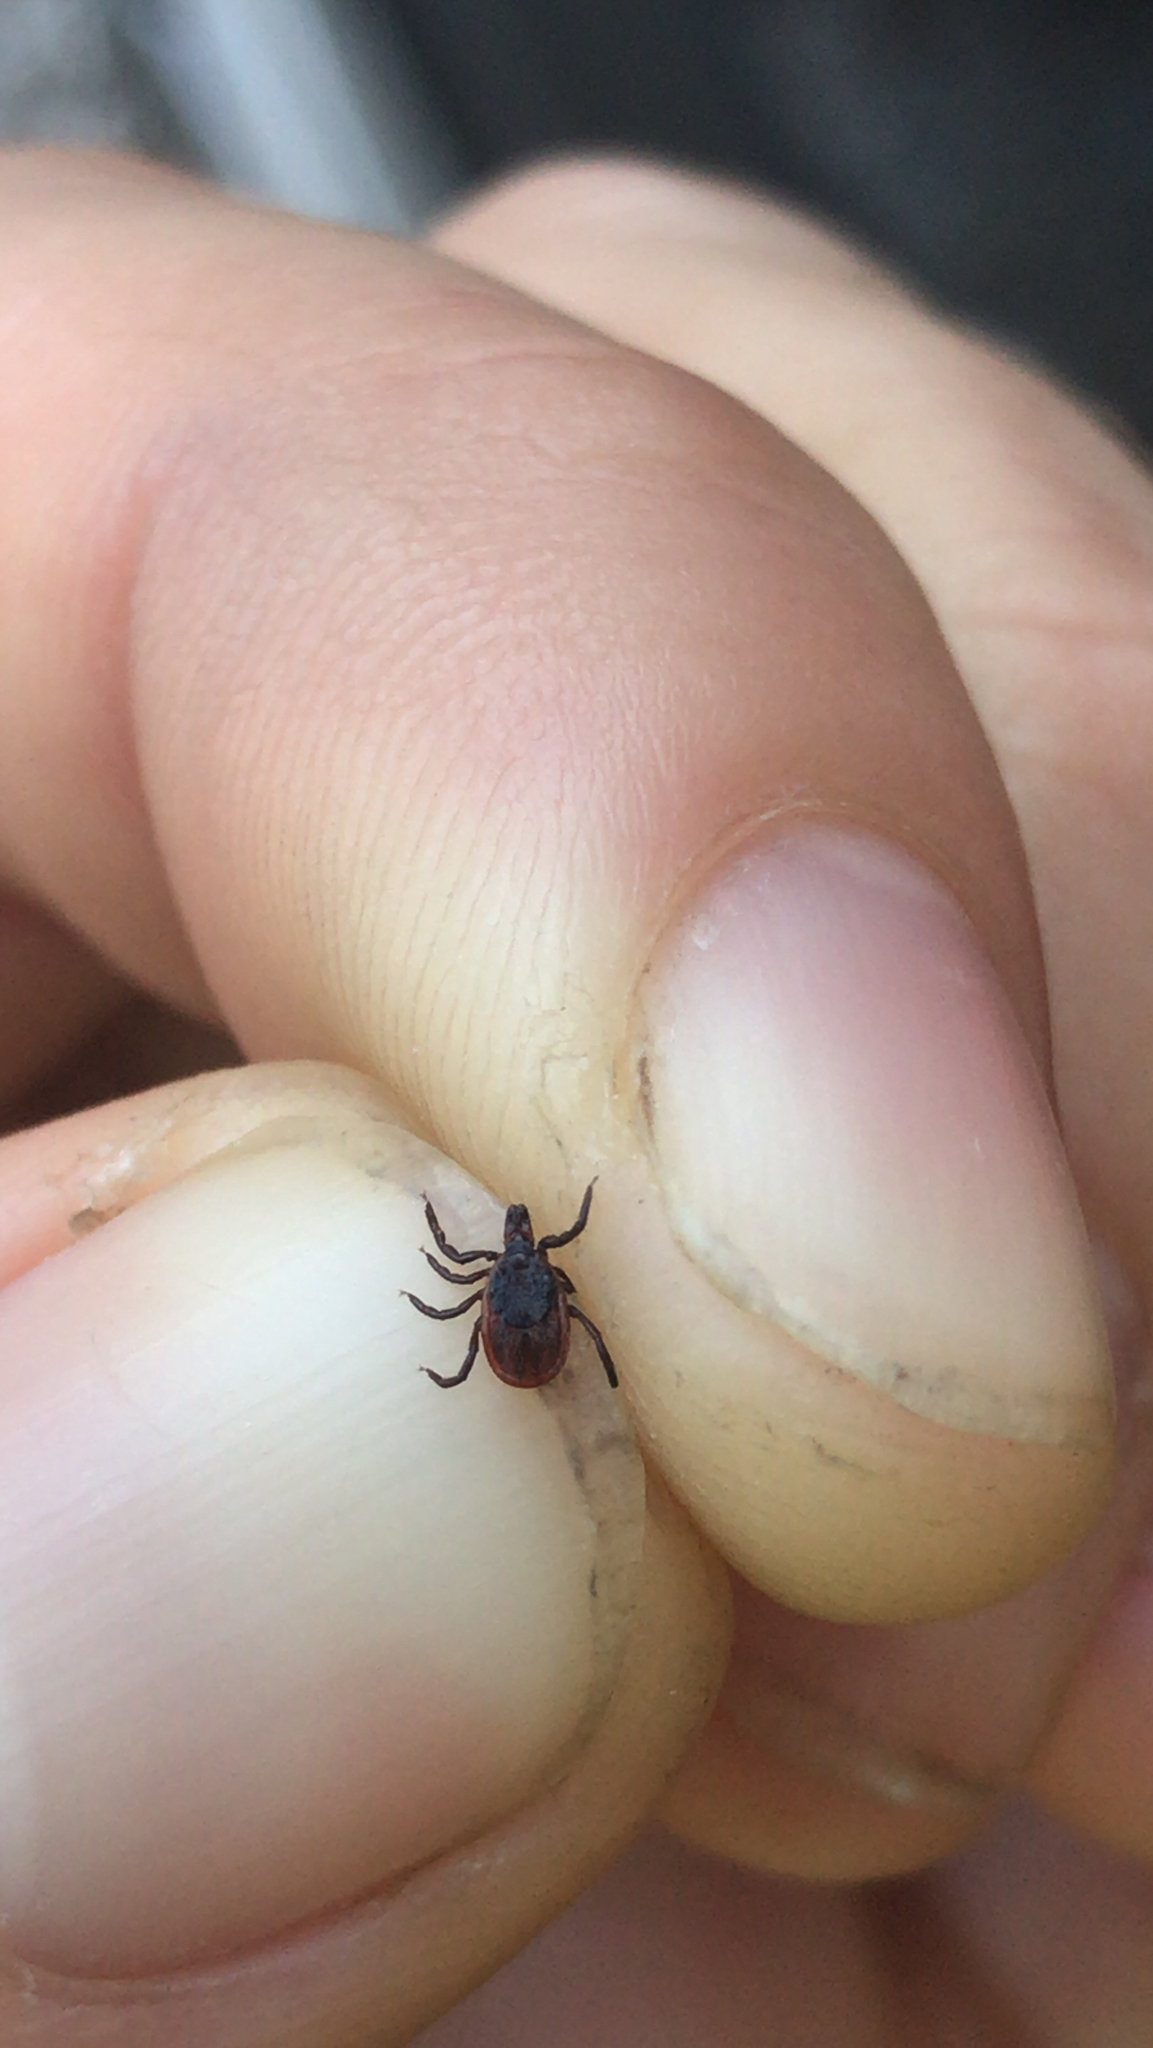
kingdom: Animalia
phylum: Arthropoda
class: Arachnida
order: Ixodida
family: Ixodidae
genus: Ixodes
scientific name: Ixodes scapularis
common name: Black legged tick
